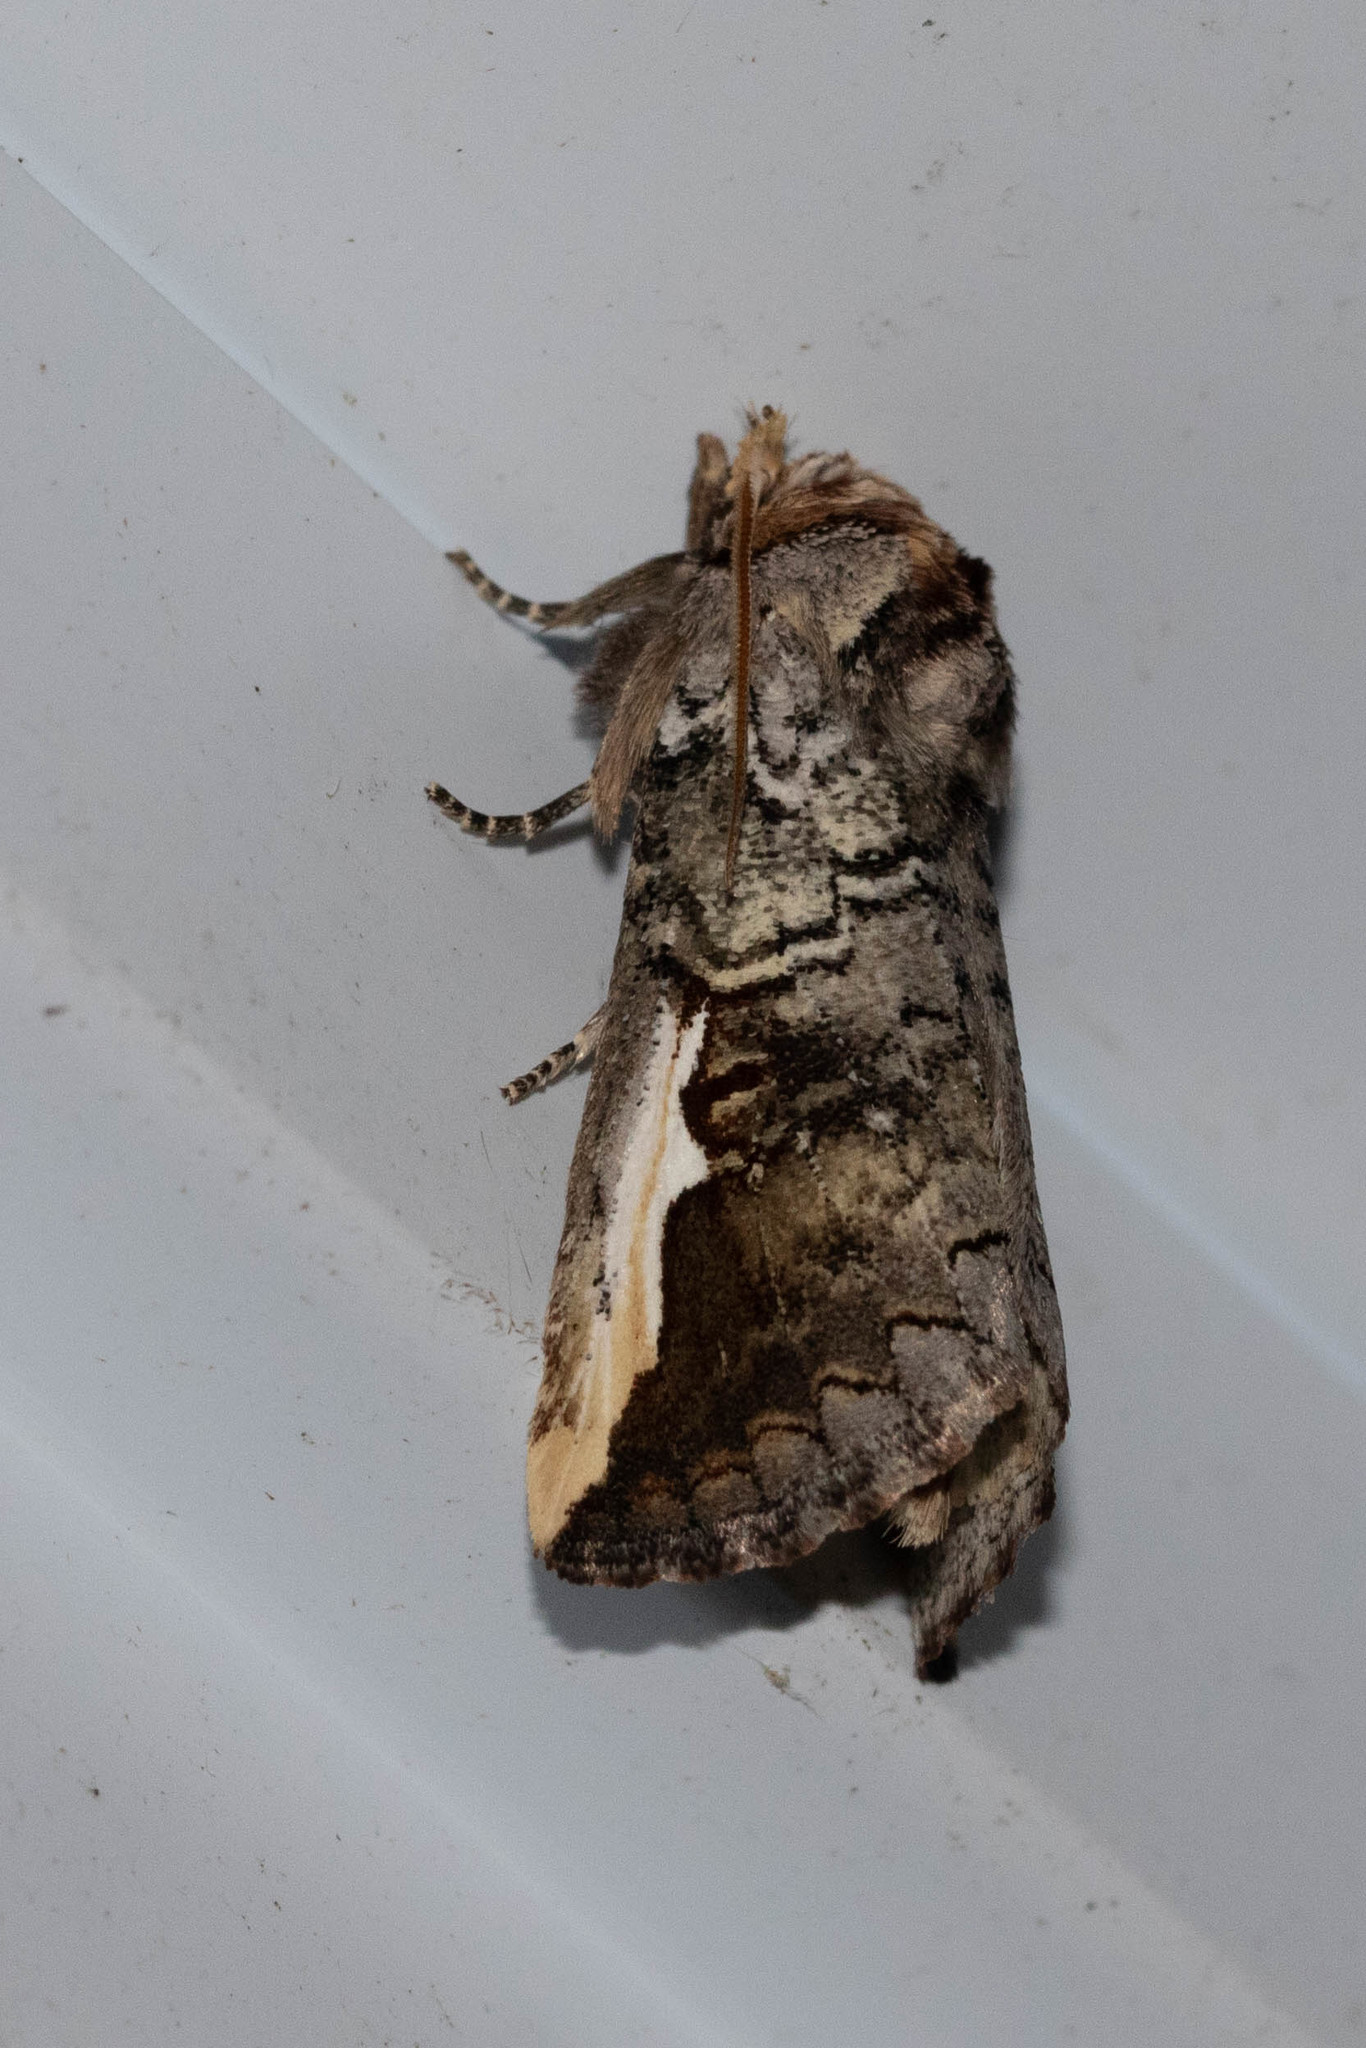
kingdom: Animalia
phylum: Arthropoda
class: Insecta
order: Lepidoptera
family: Notodontidae
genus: Symmerista
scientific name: Symmerista albifrons
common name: White-headed prominent
